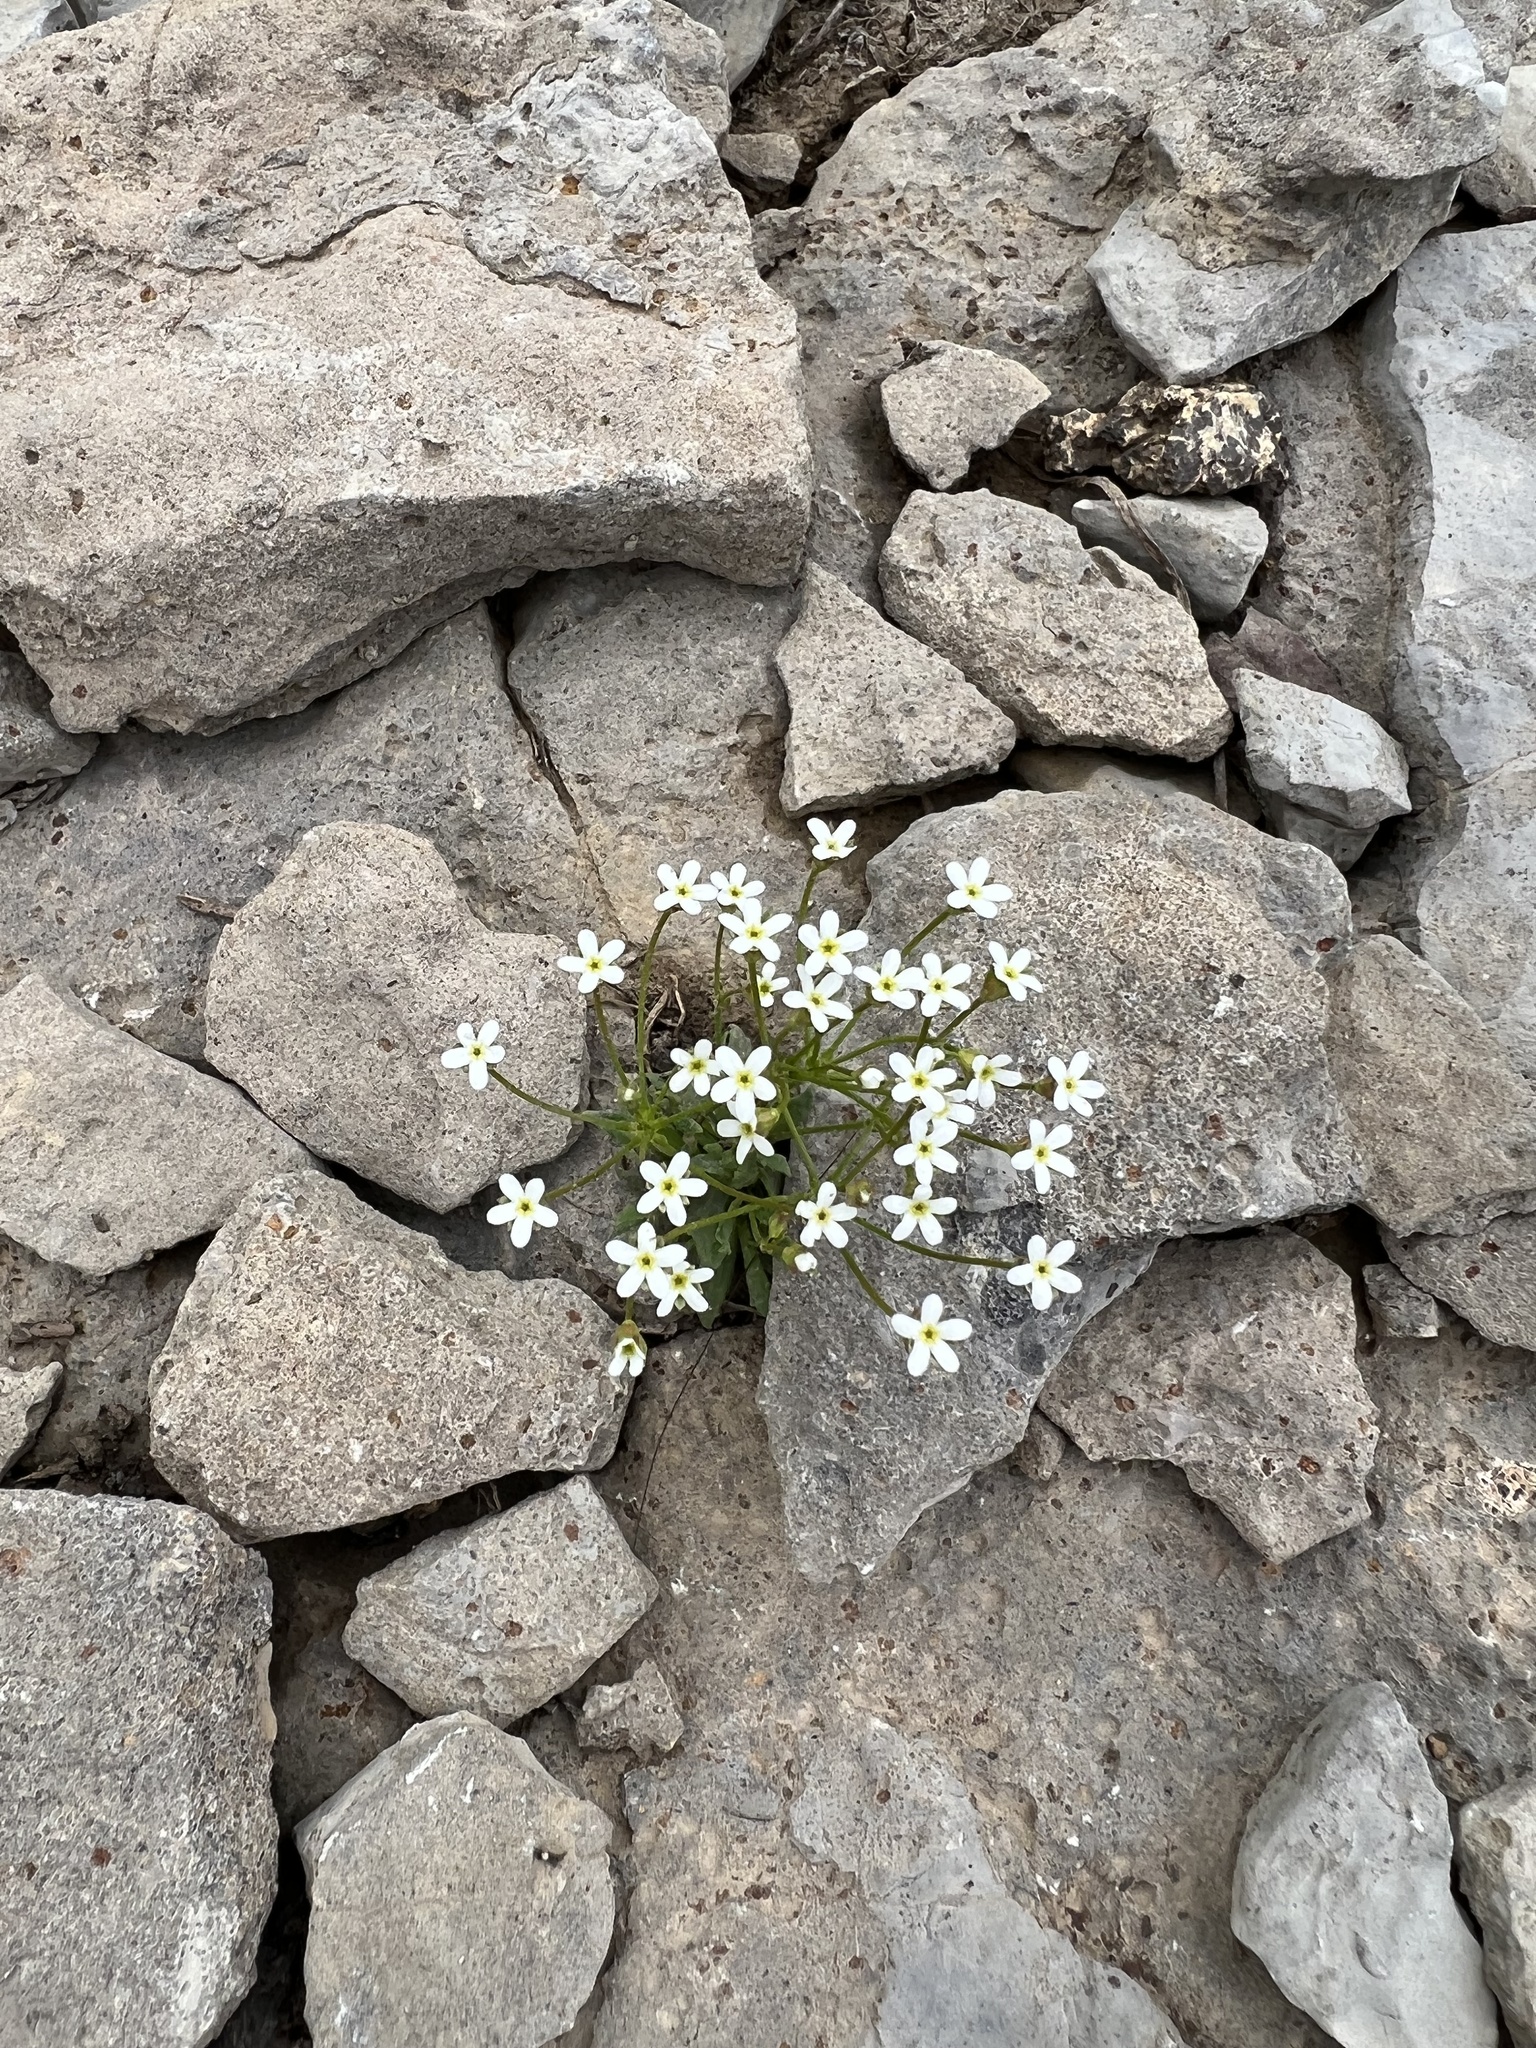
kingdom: Plantae
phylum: Tracheophyta
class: Magnoliopsida
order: Ericales
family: Primulaceae
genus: Androsace
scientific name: Androsace septentrionalis
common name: Hairy northern fairy-candelabra
